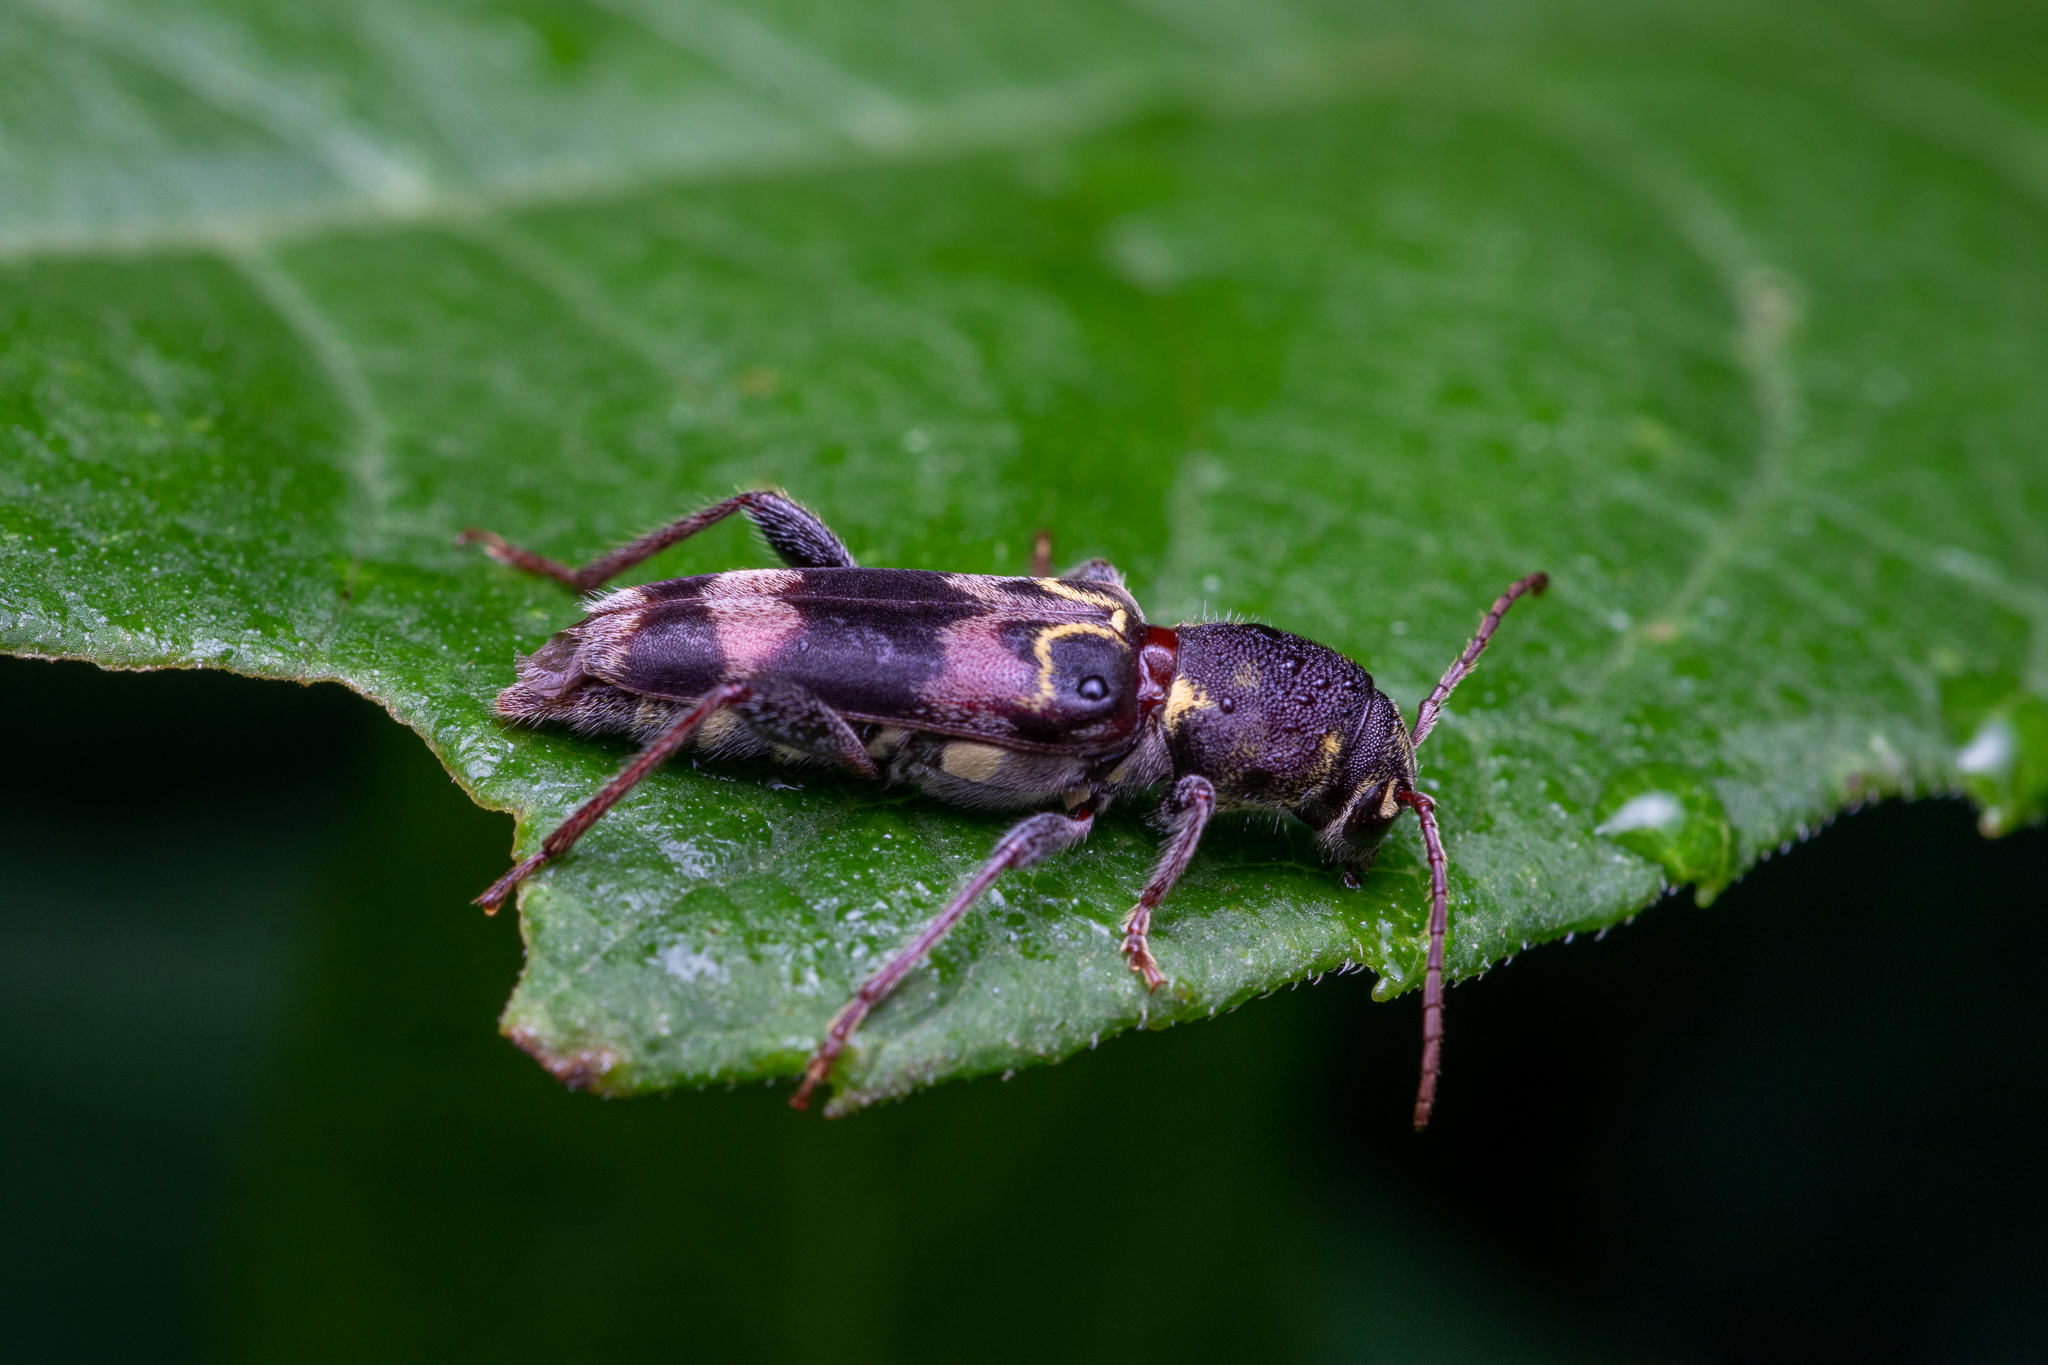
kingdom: Animalia
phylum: Arthropoda
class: Insecta
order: Coleoptera
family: Cerambycidae
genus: Xylotrechus
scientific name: Xylotrechus colonus
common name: Long-horned beetle
